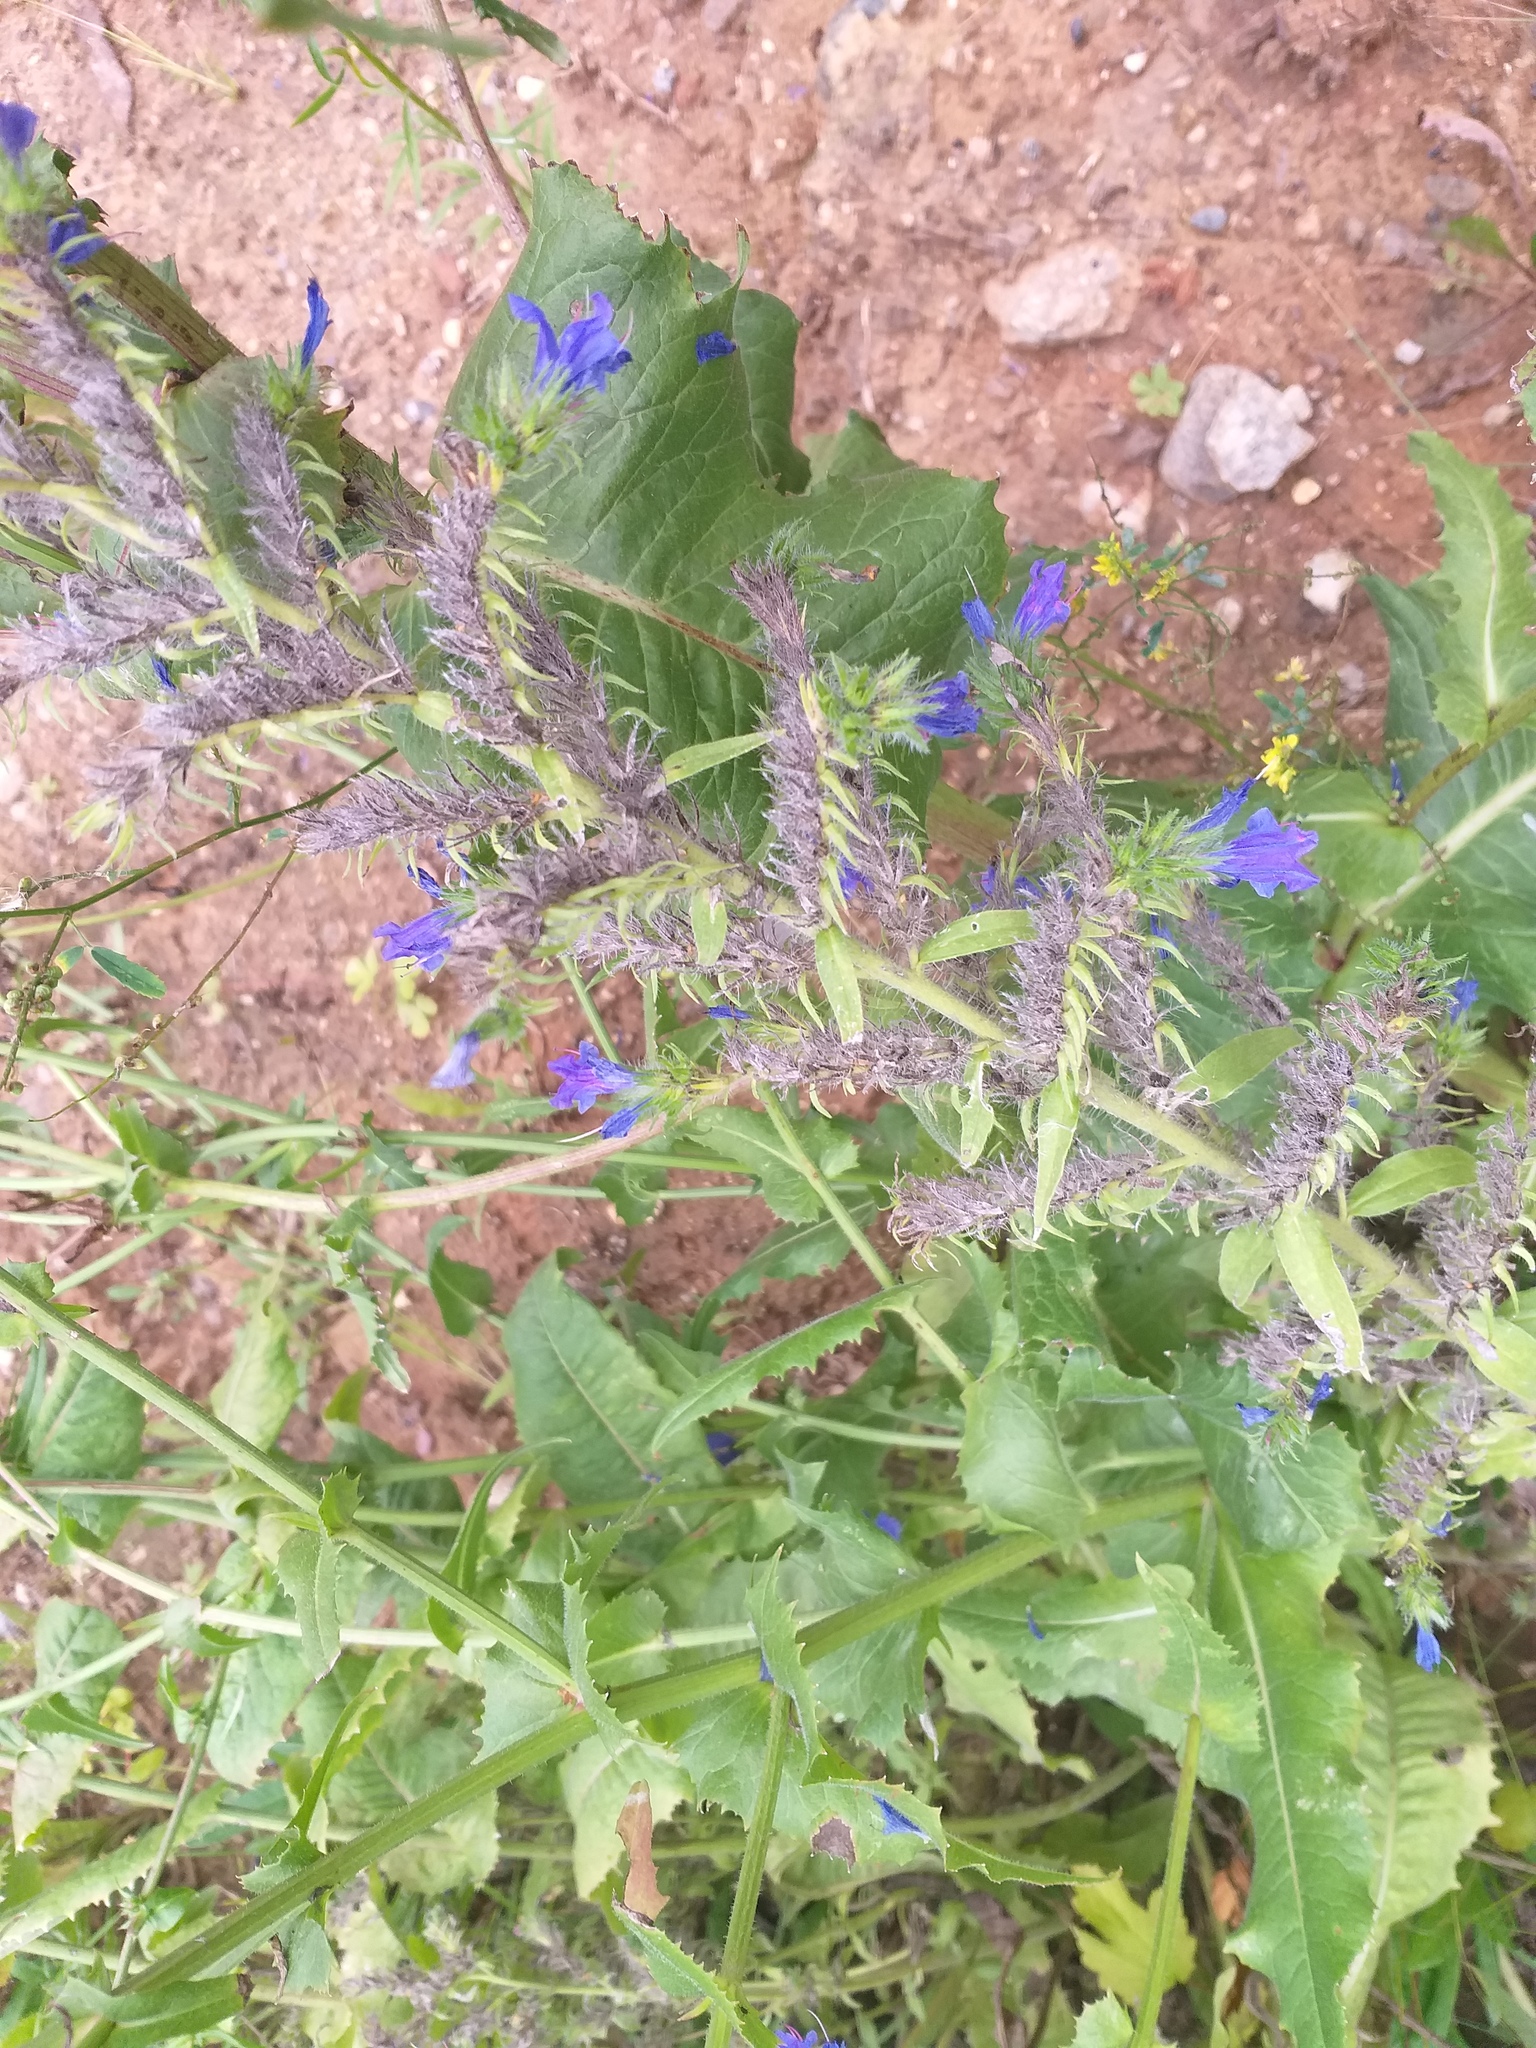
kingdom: Plantae
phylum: Tracheophyta
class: Magnoliopsida
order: Boraginales
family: Boraginaceae
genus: Echium
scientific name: Echium vulgare
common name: Common viper's bugloss
